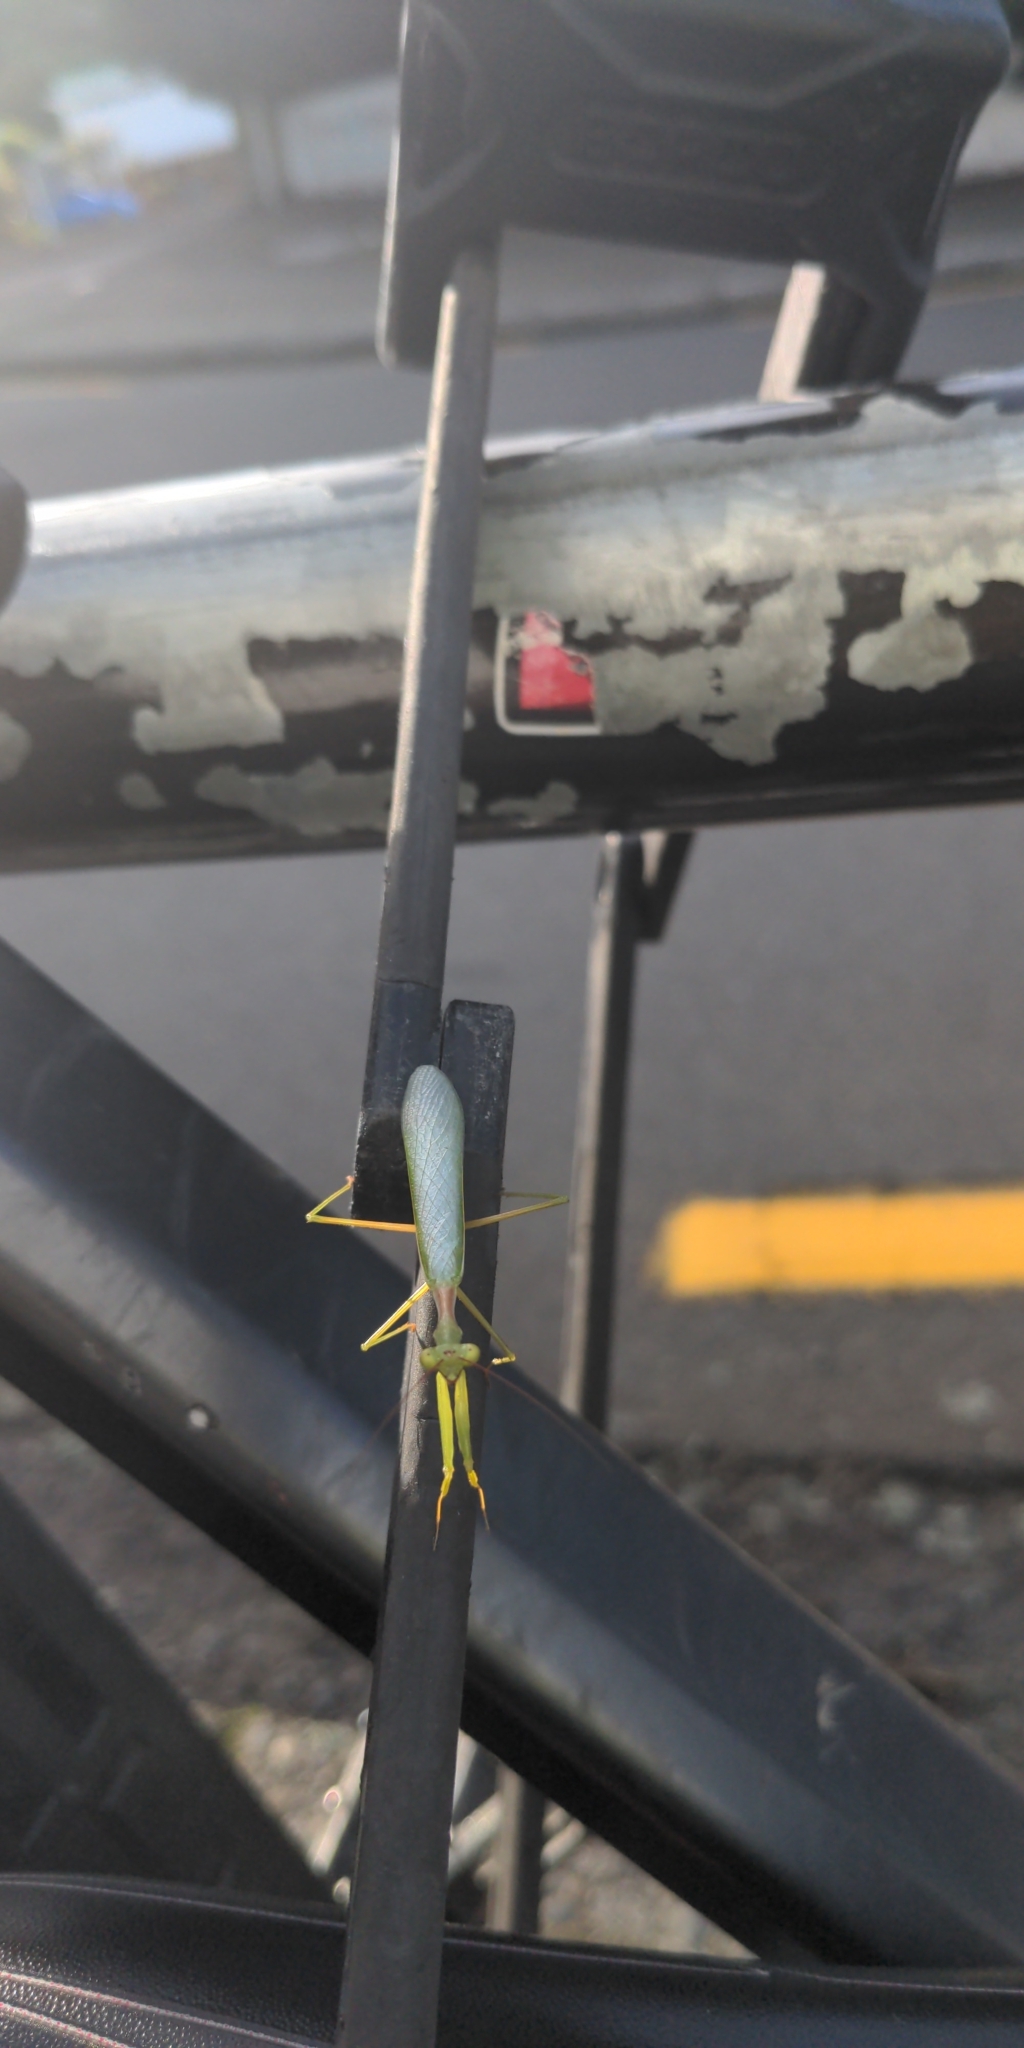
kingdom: Animalia
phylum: Arthropoda
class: Insecta
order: Mantodea
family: Miomantidae
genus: Miomantis
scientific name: Miomantis caffra
